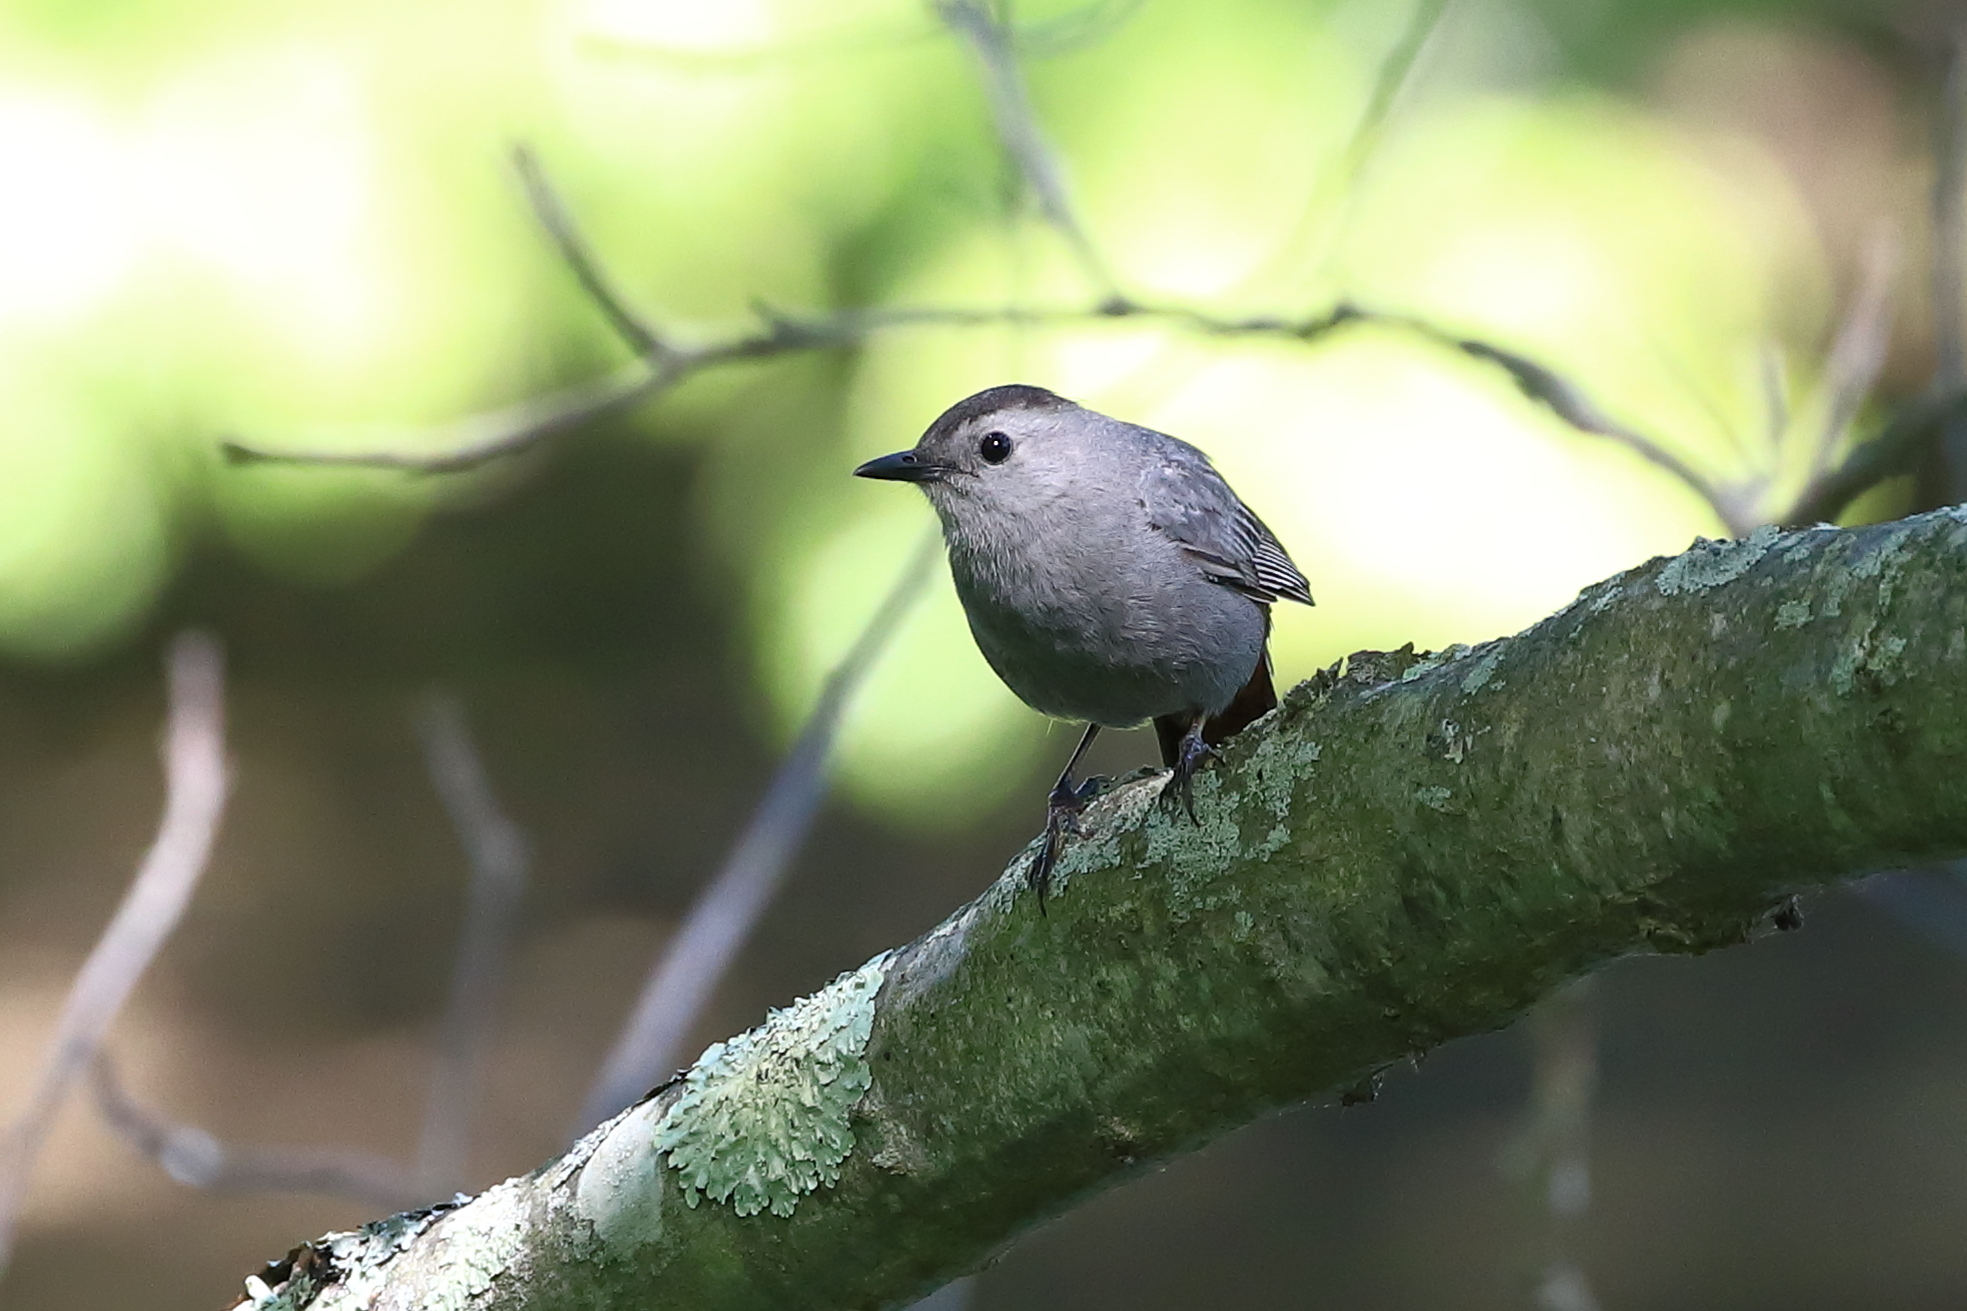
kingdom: Animalia
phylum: Chordata
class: Aves
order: Passeriformes
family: Mimidae
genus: Dumetella
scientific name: Dumetella carolinensis
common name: Gray catbird
